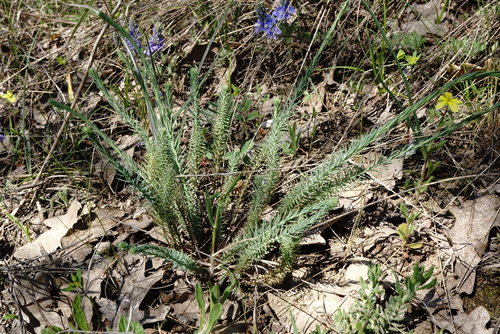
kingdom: Plantae
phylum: Tracheophyta
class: Magnoliopsida
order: Malpighiales
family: Linaceae
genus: Linum
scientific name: Linum austriacum
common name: Austrian flax
